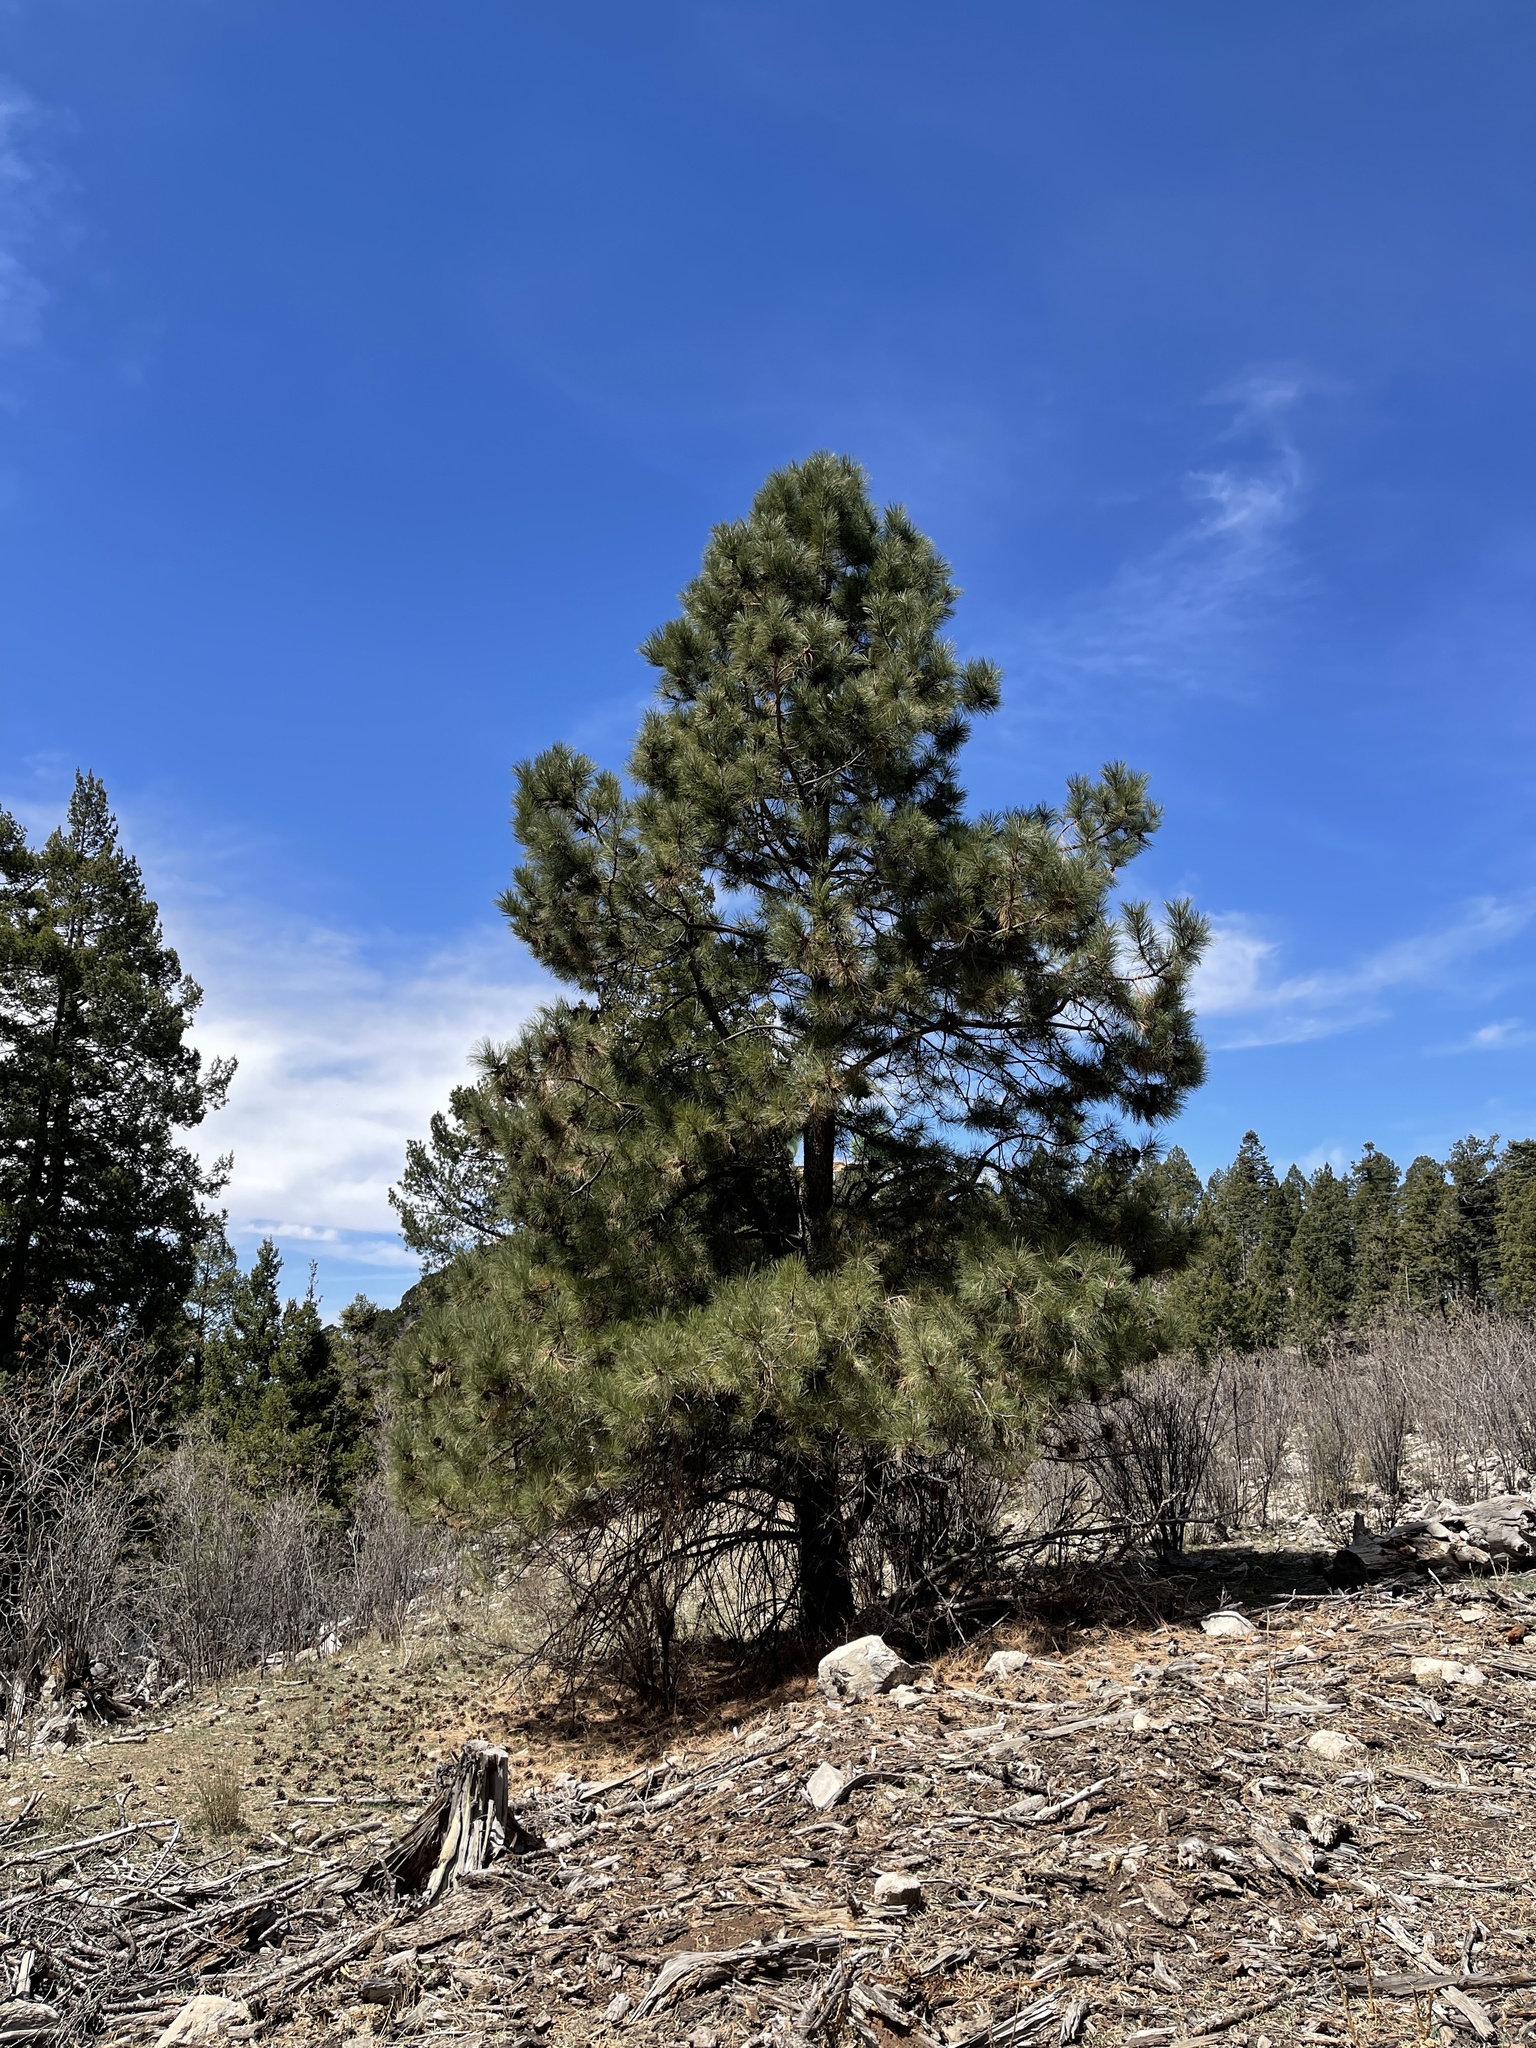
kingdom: Plantae
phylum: Tracheophyta
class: Pinopsida
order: Pinales
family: Pinaceae
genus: Pinus
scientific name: Pinus ponderosa
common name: Western yellow-pine
